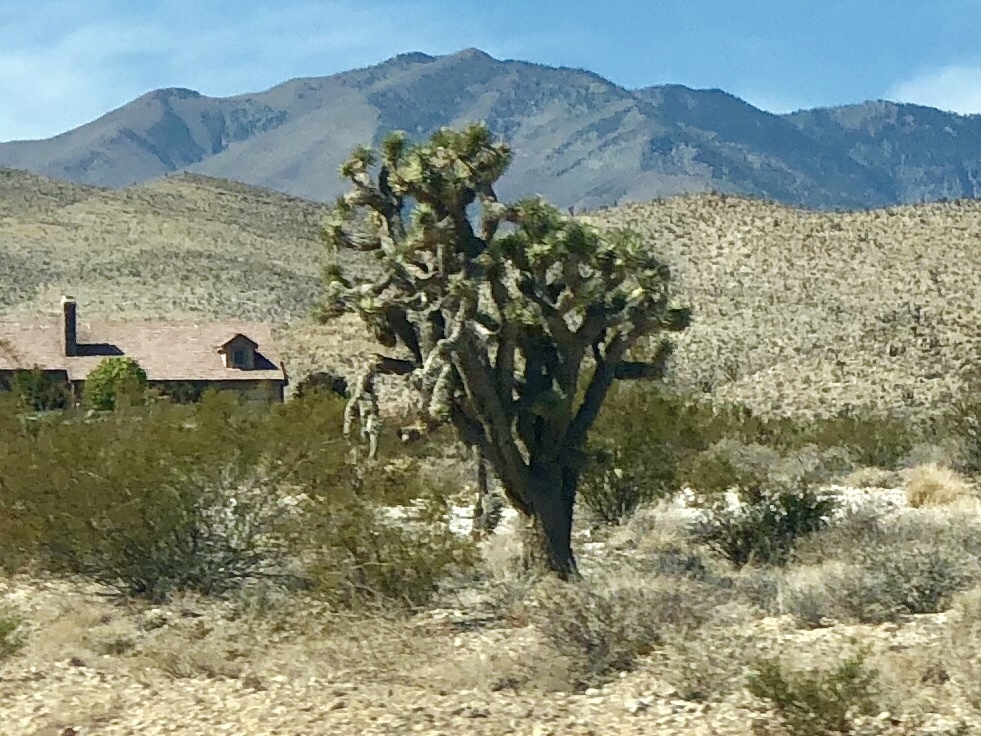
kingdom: Plantae
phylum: Tracheophyta
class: Liliopsida
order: Asparagales
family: Asparagaceae
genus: Yucca
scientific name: Yucca brevifolia
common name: Joshua tree
